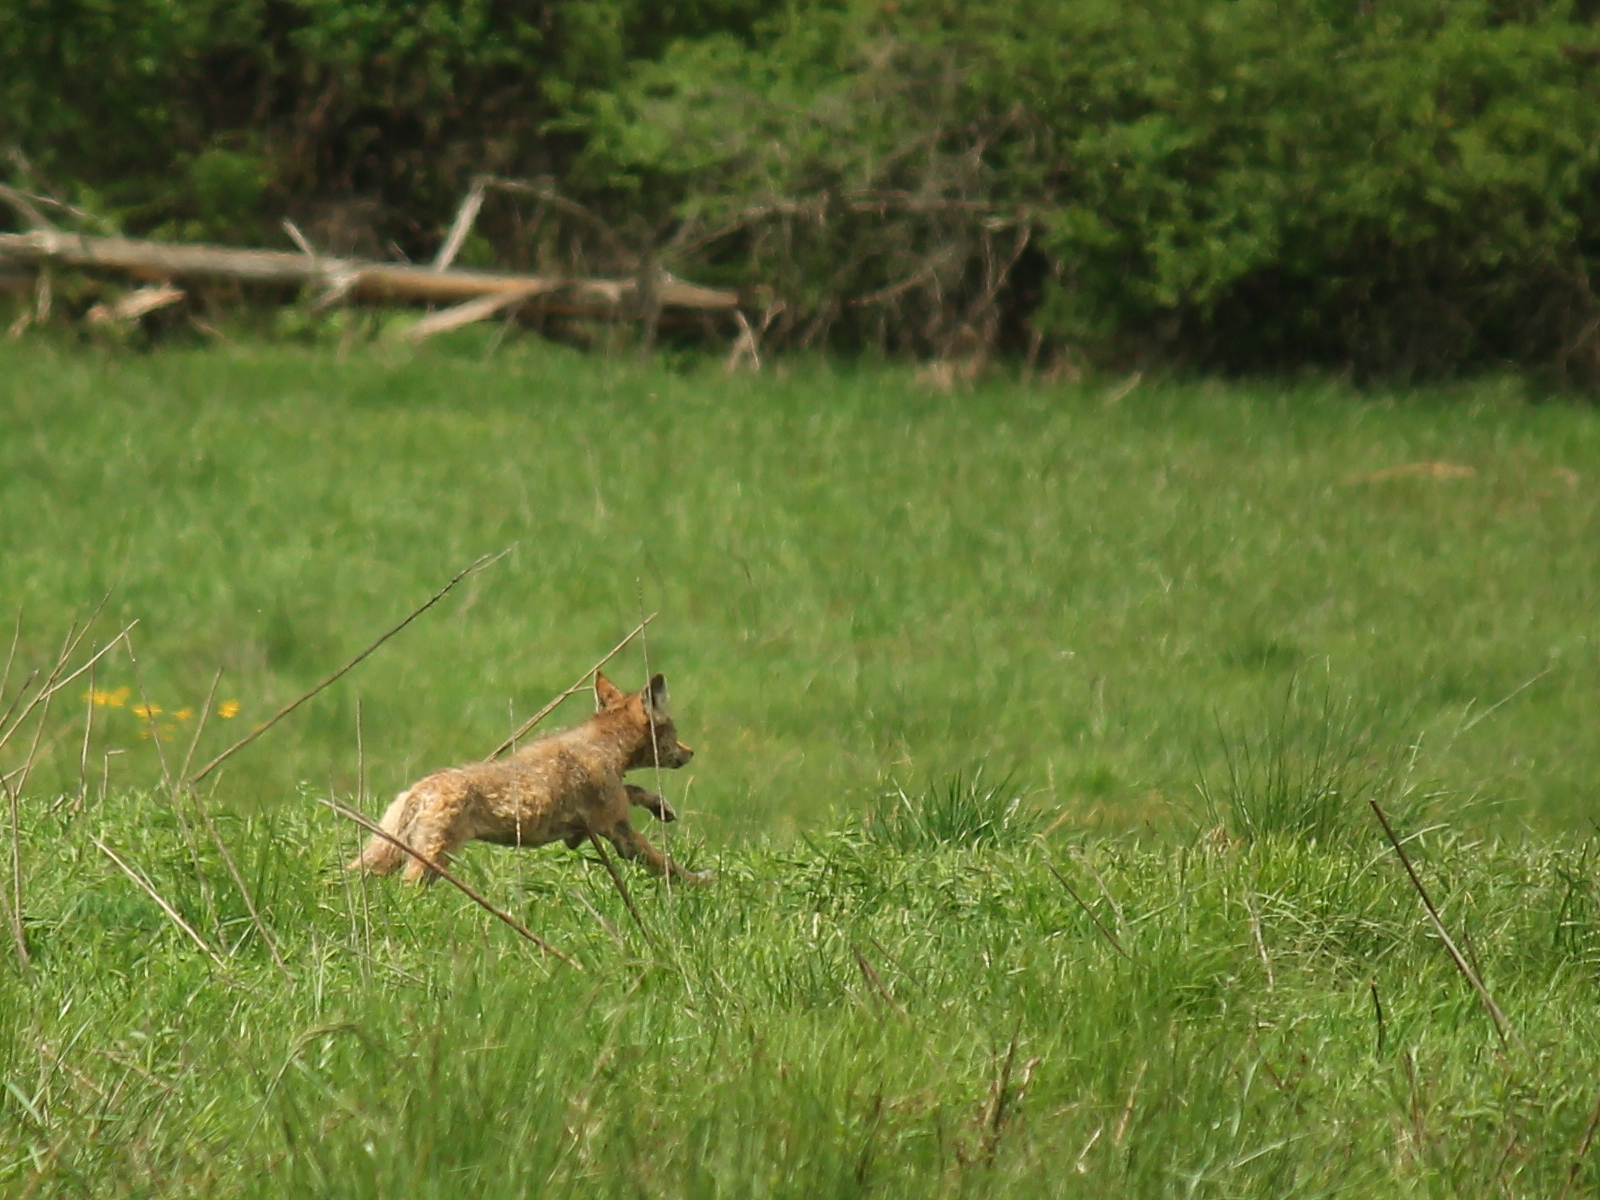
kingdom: Animalia
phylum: Chordata
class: Mammalia
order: Carnivora
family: Canidae
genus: Canis
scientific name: Canis latrans
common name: Coyote
